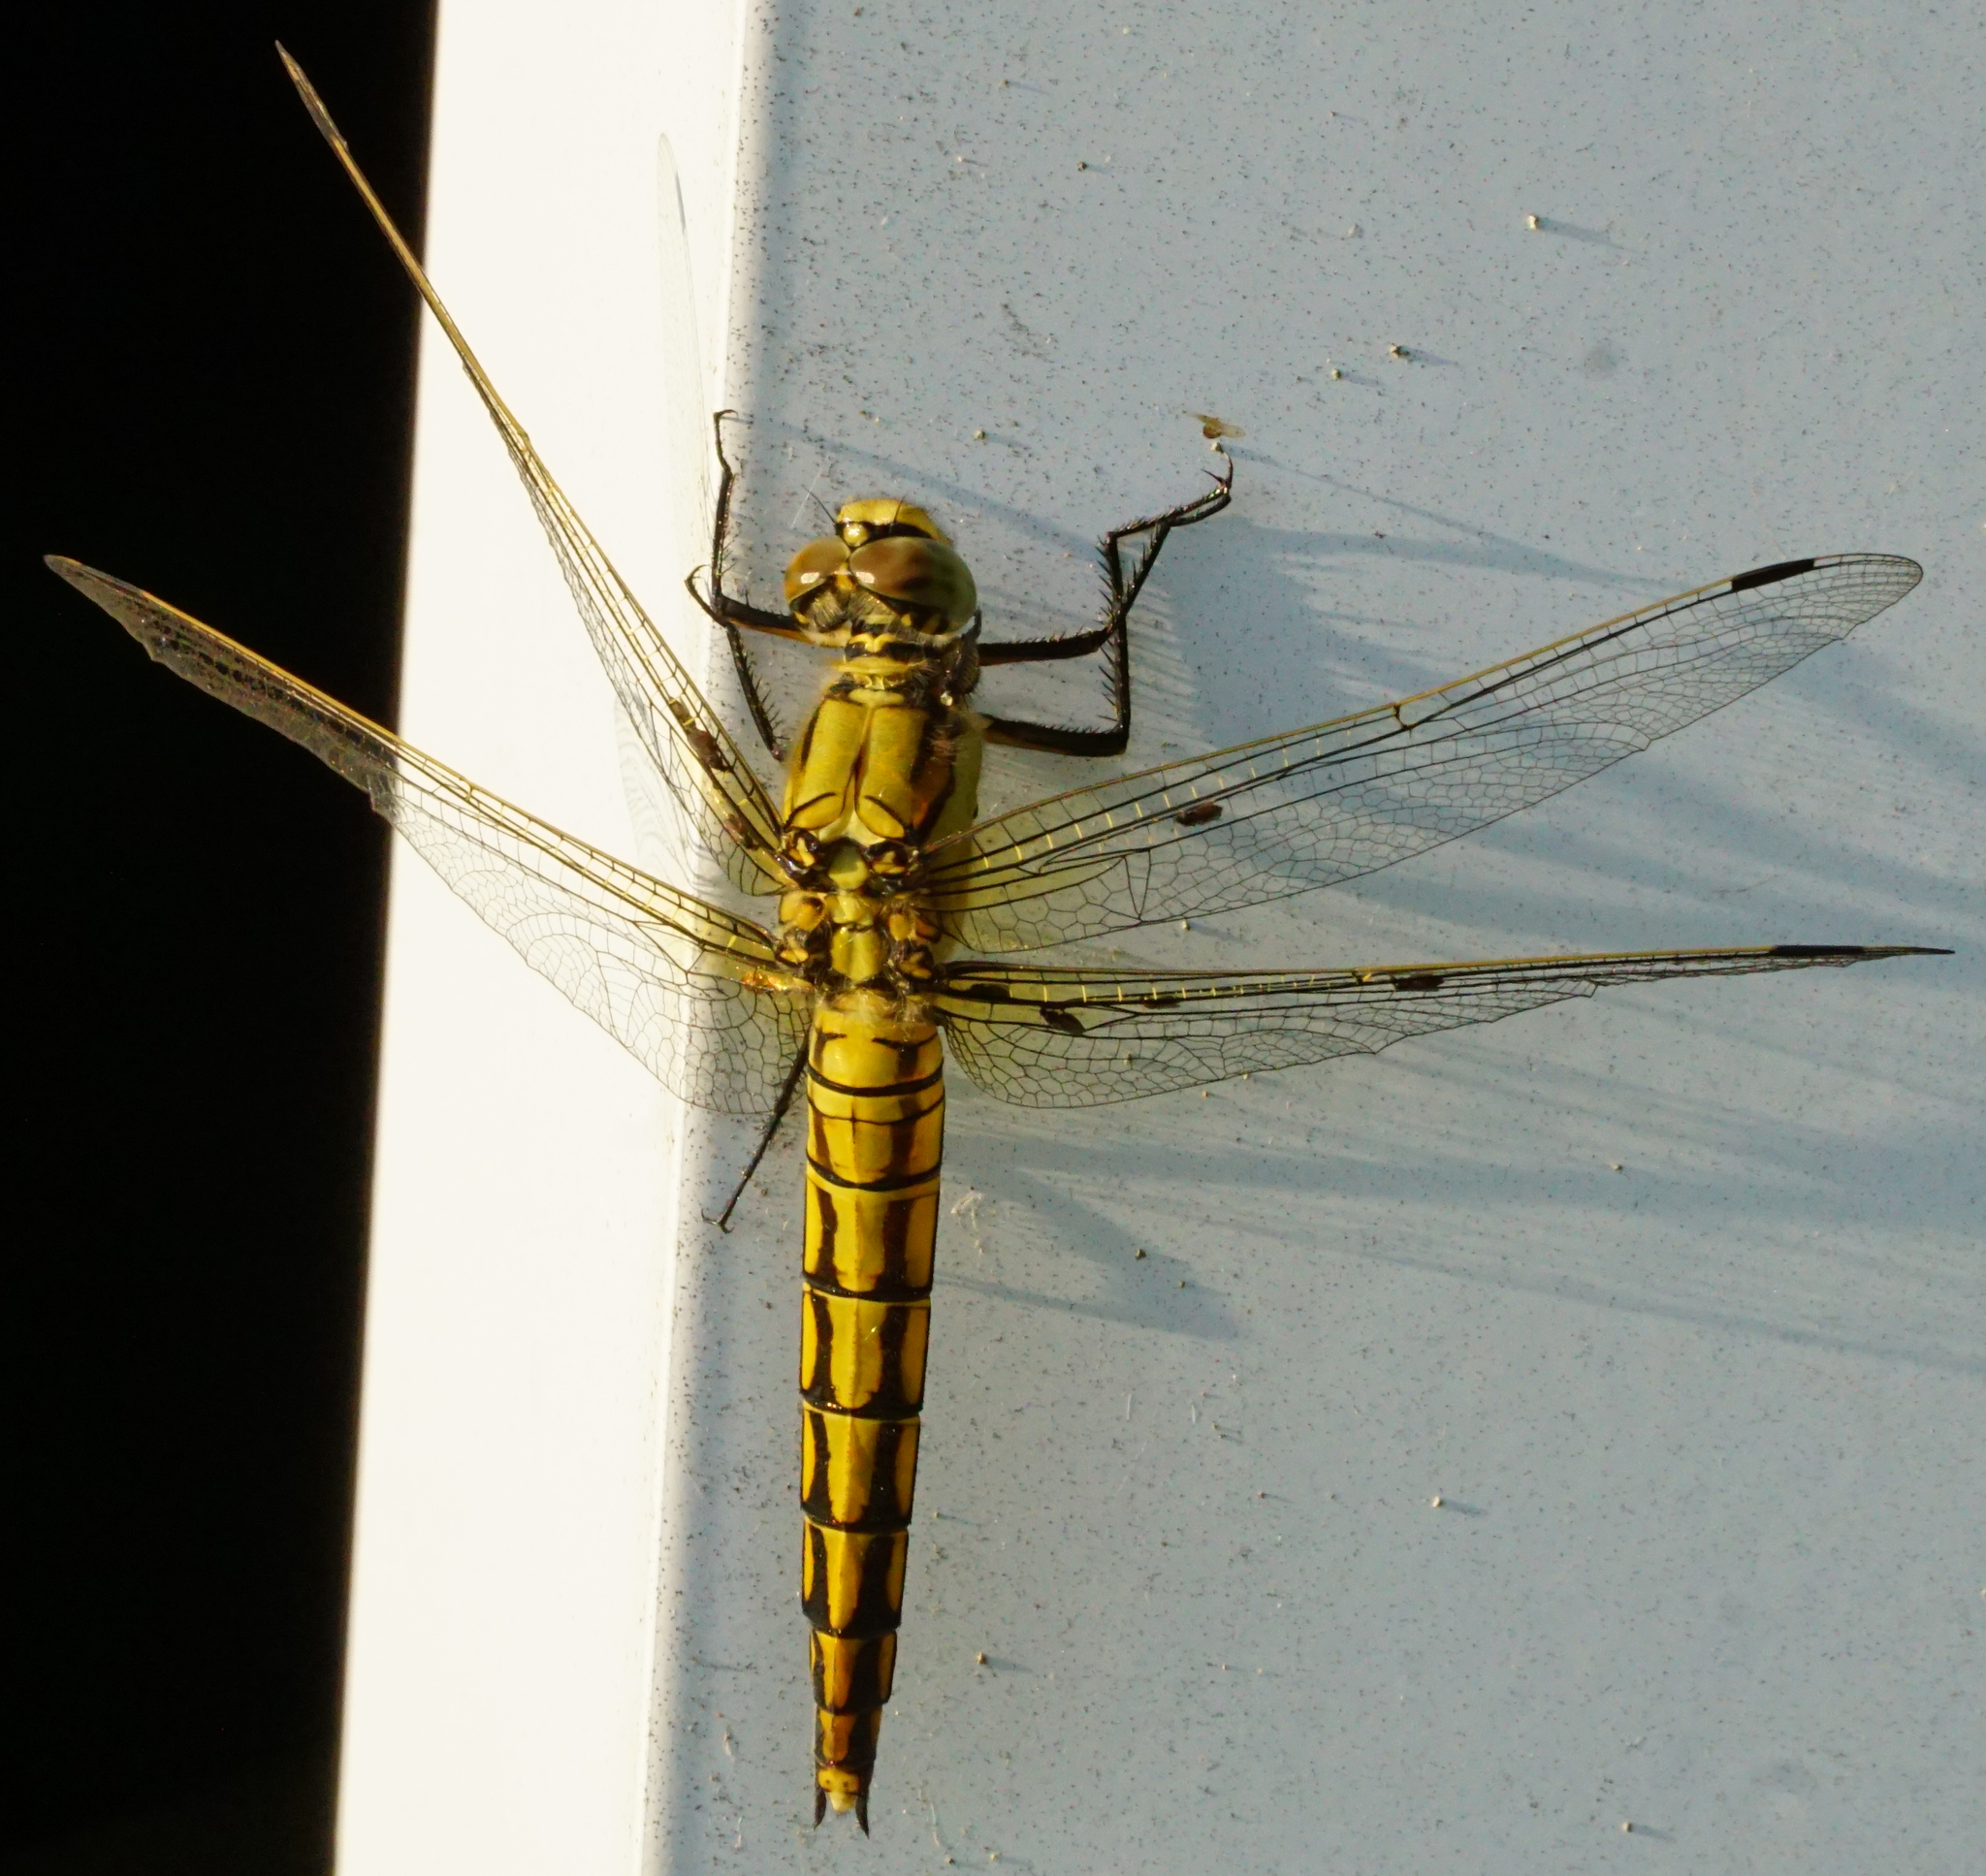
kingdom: Animalia
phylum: Arthropoda
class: Insecta
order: Odonata
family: Libellulidae
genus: Orthetrum
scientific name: Orthetrum cancellatum
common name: Black-tailed skimmer
